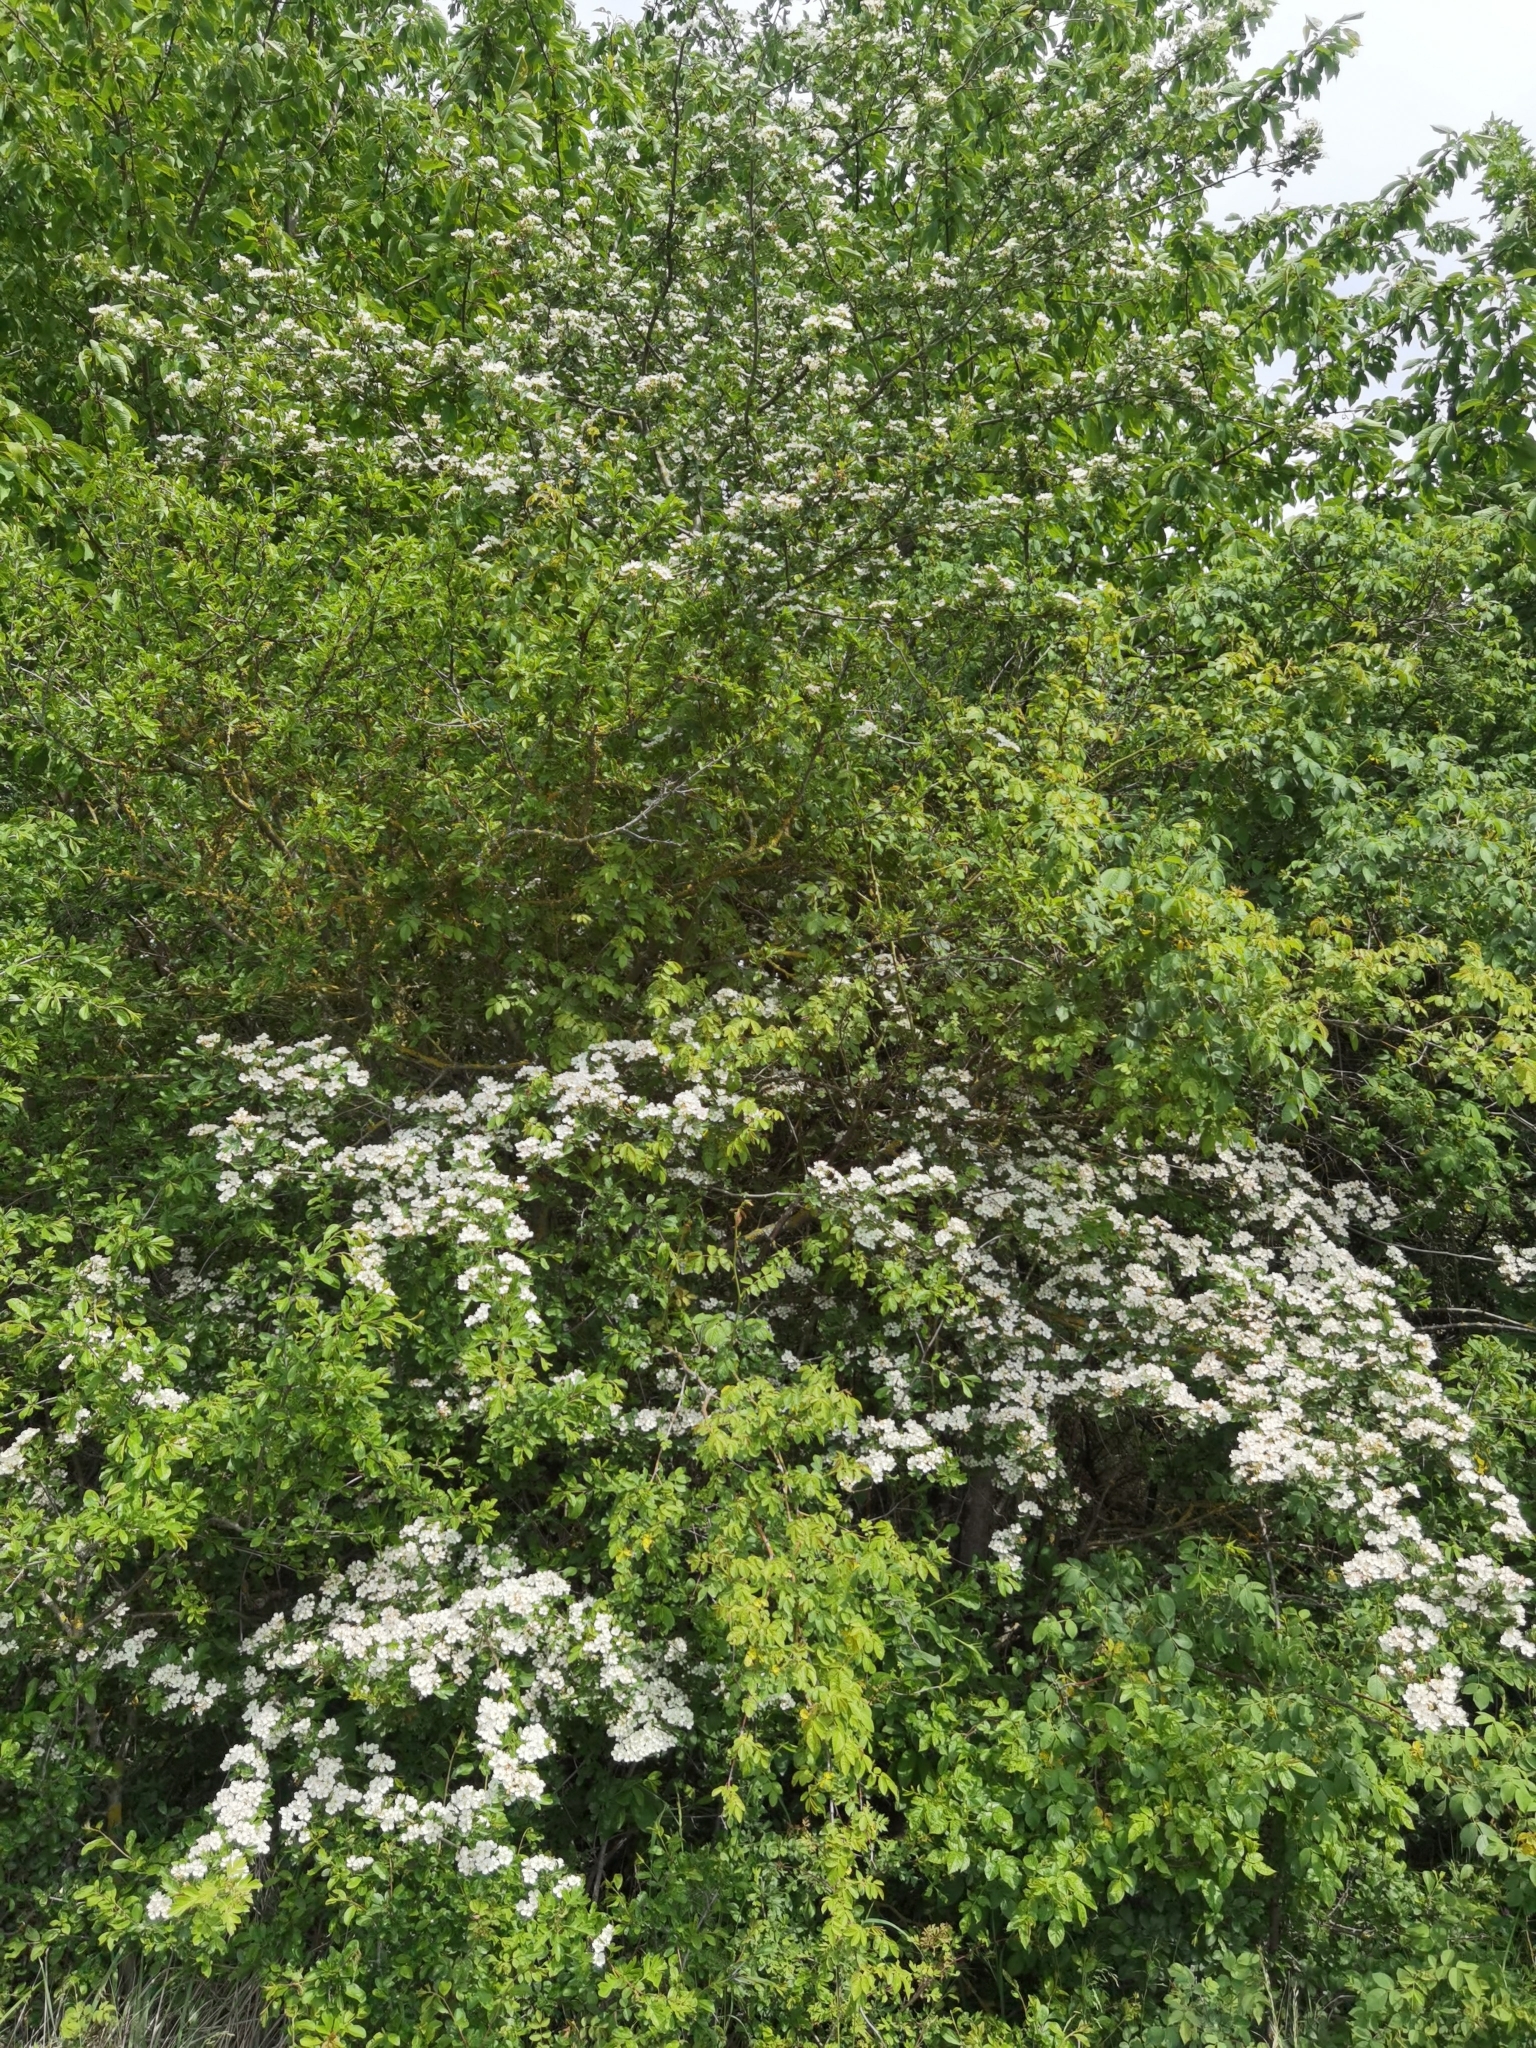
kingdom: Plantae
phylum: Tracheophyta
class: Magnoliopsida
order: Rosales
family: Rosaceae
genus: Crataegus
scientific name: Crataegus monogyna
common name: Hawthorn
